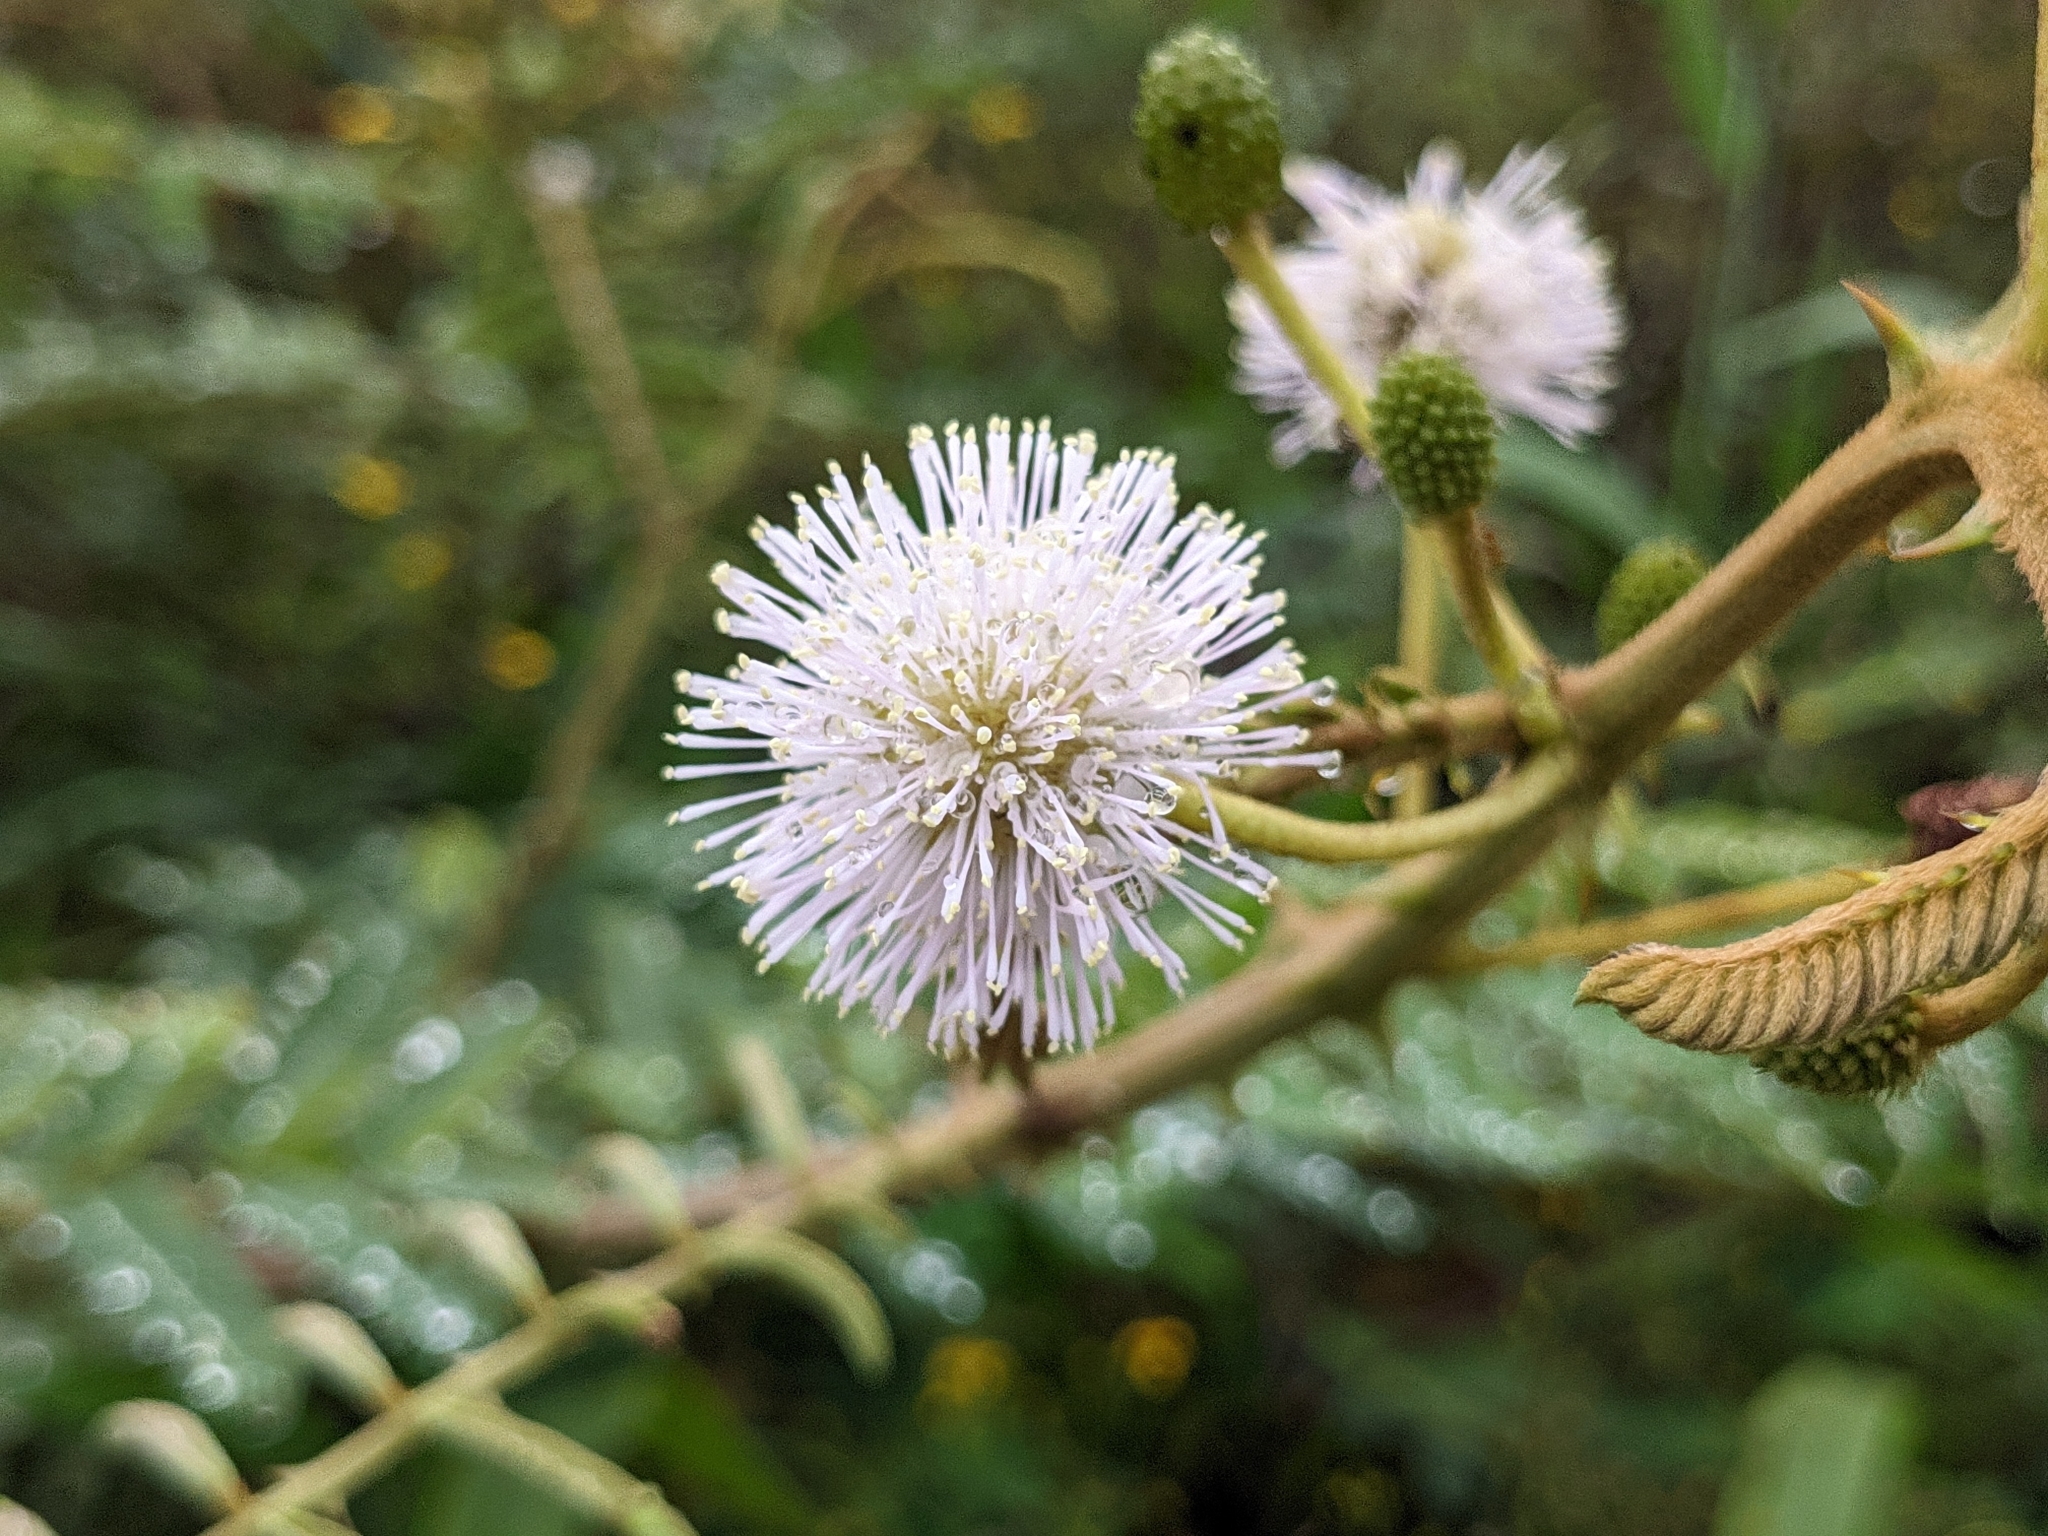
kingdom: Plantae
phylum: Tracheophyta
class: Magnoliopsida
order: Fabales
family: Fabaceae
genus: Mimosa
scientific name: Mimosa pigra
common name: Black mimosa
